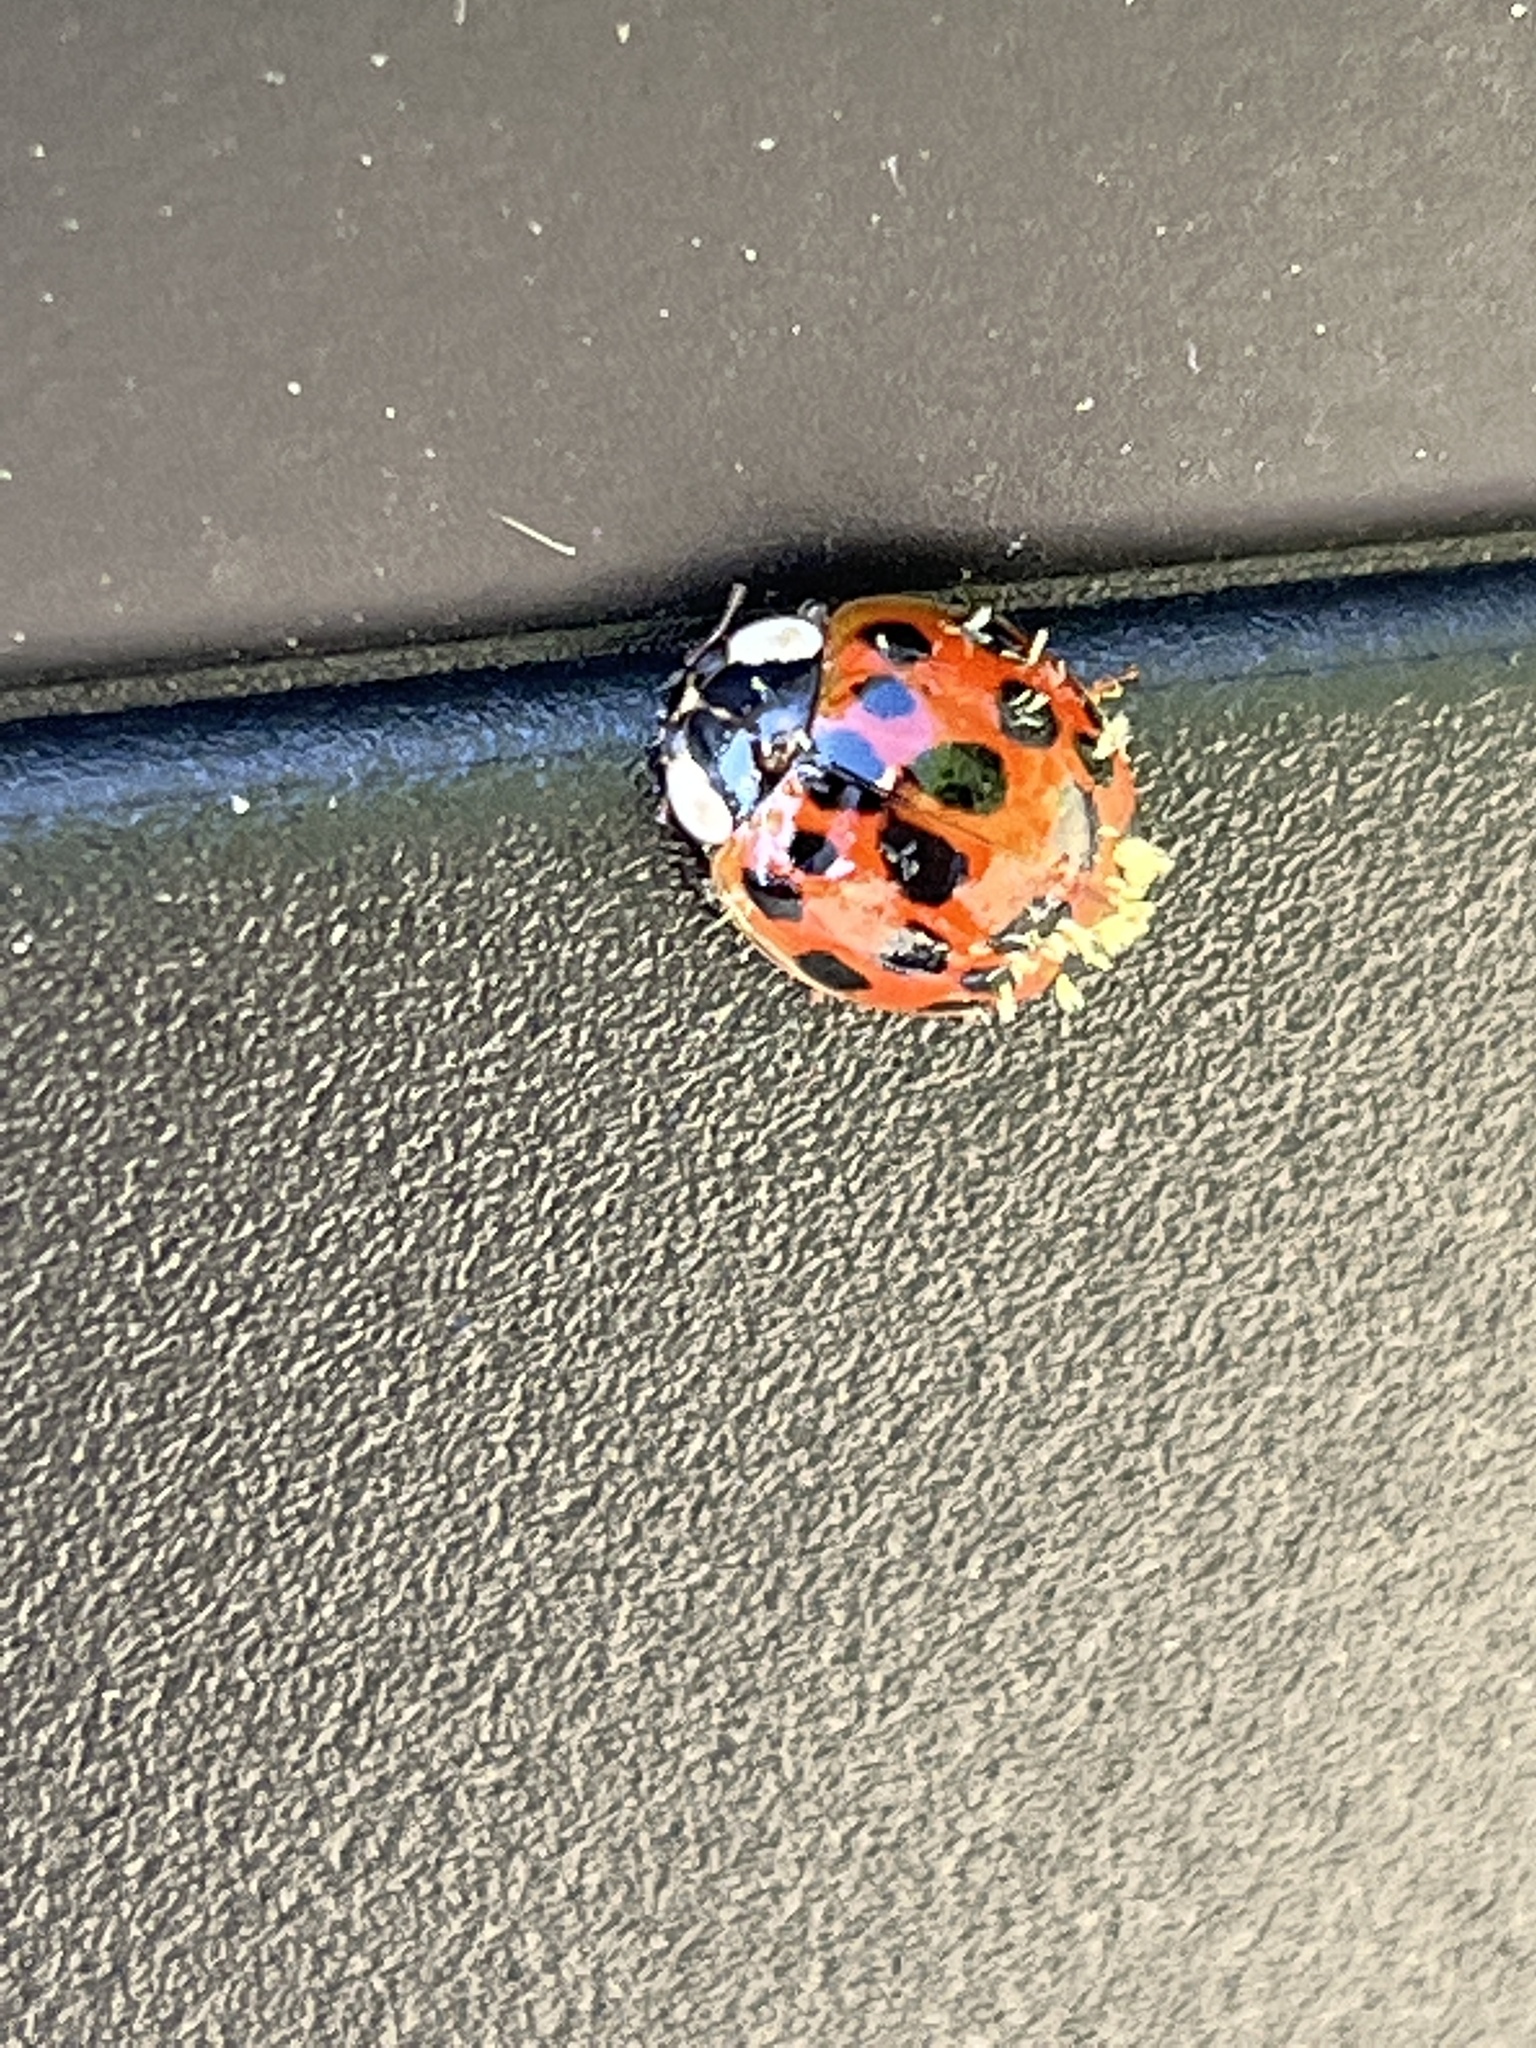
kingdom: Animalia
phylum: Arthropoda
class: Insecta
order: Coleoptera
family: Coccinellidae
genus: Harmonia
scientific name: Harmonia axyridis
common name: Harlequin ladybird
